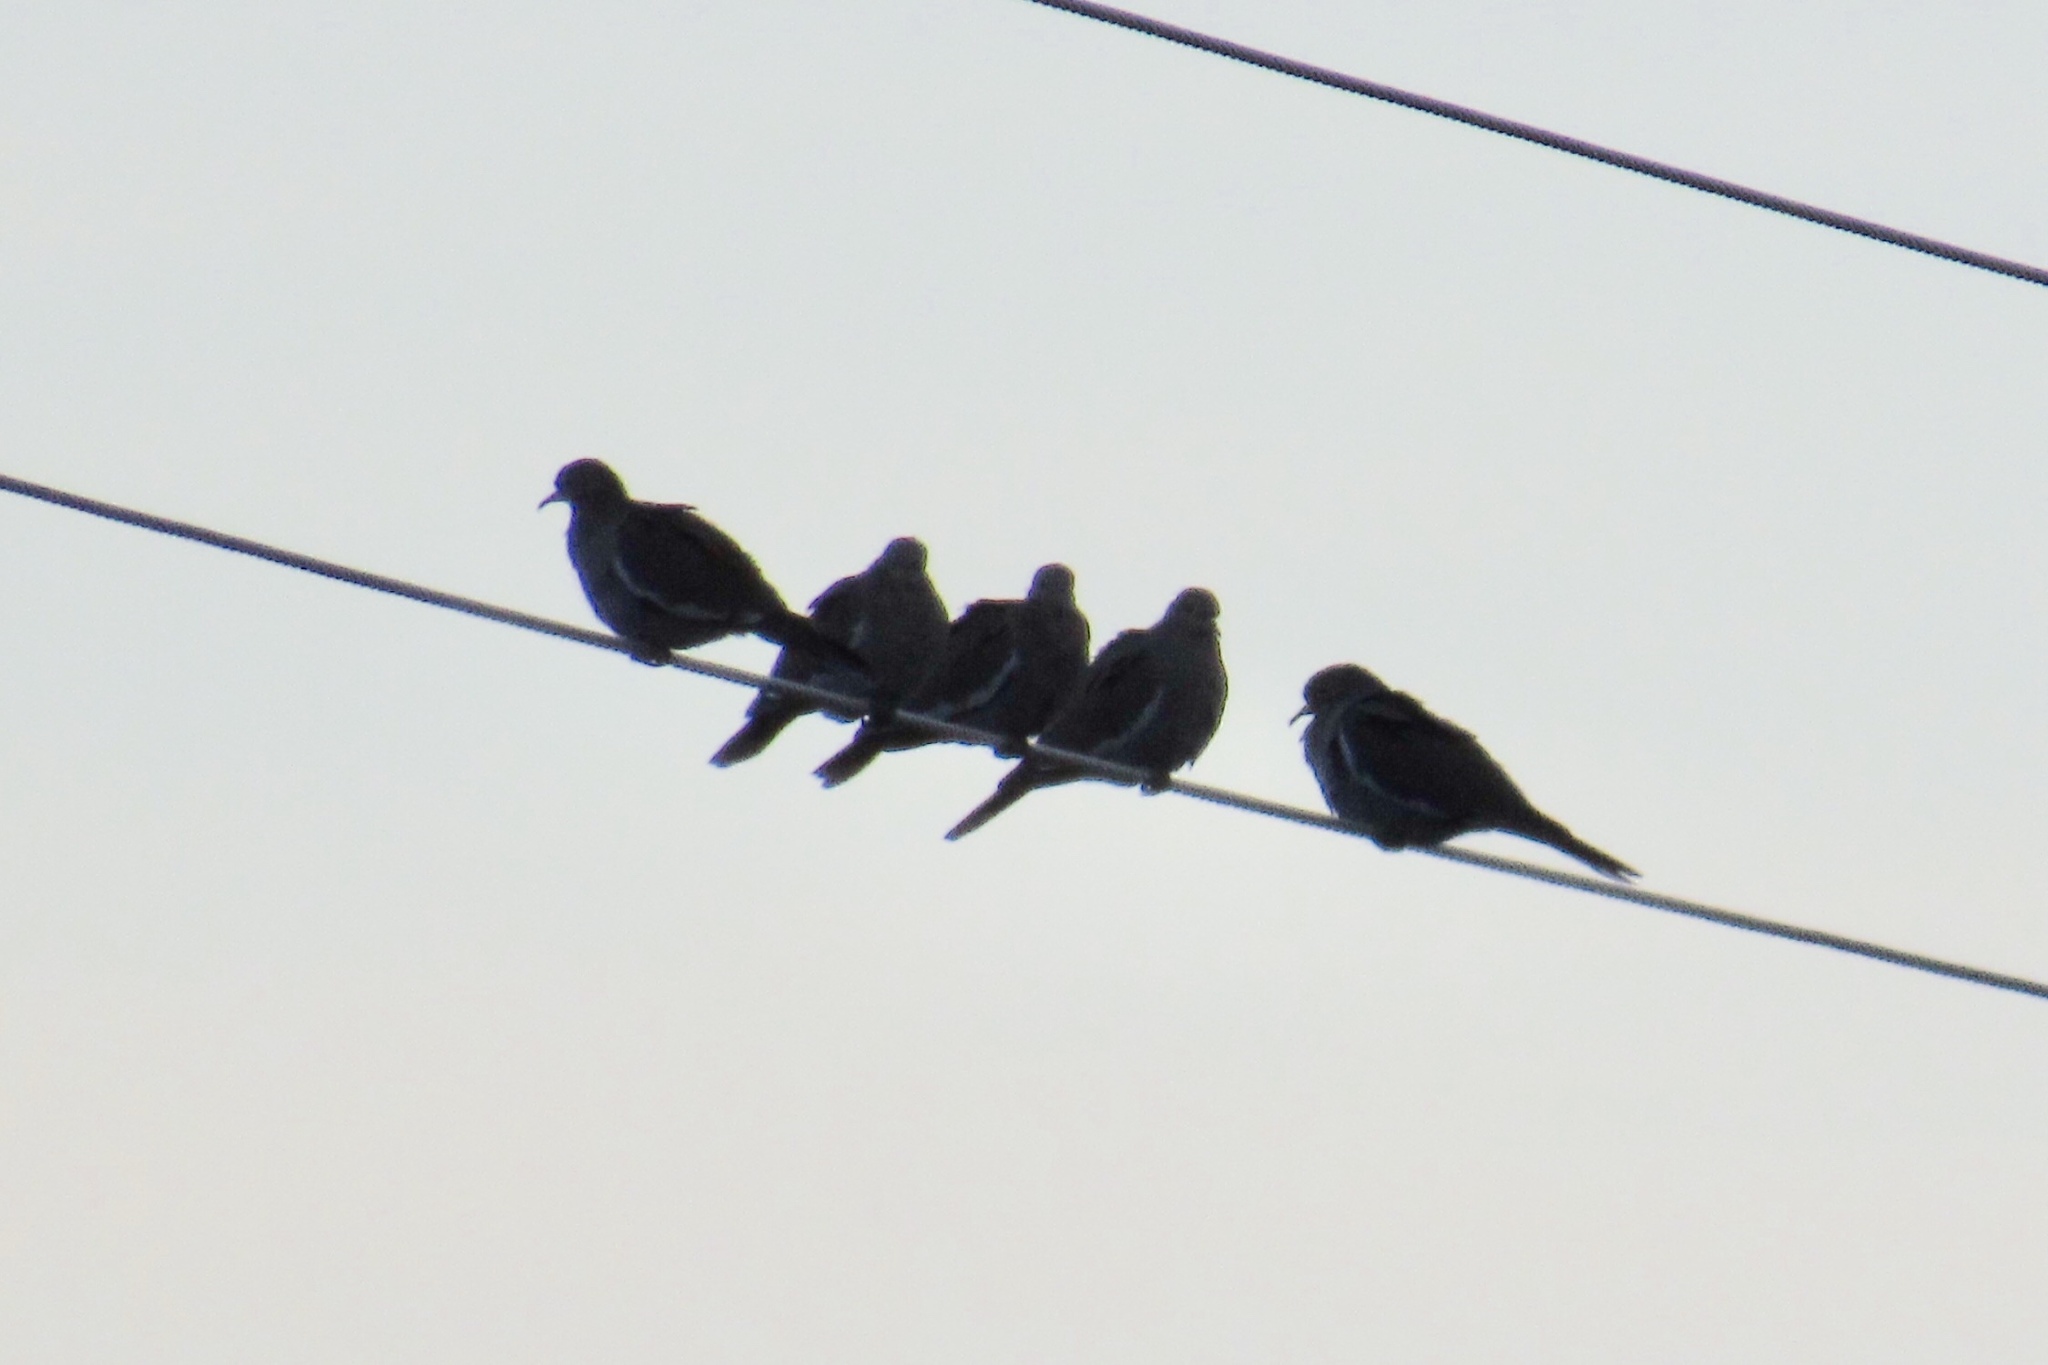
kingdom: Animalia
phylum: Chordata
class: Aves
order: Columbiformes
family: Columbidae
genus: Zenaida
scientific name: Zenaida asiatica
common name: White-winged dove
